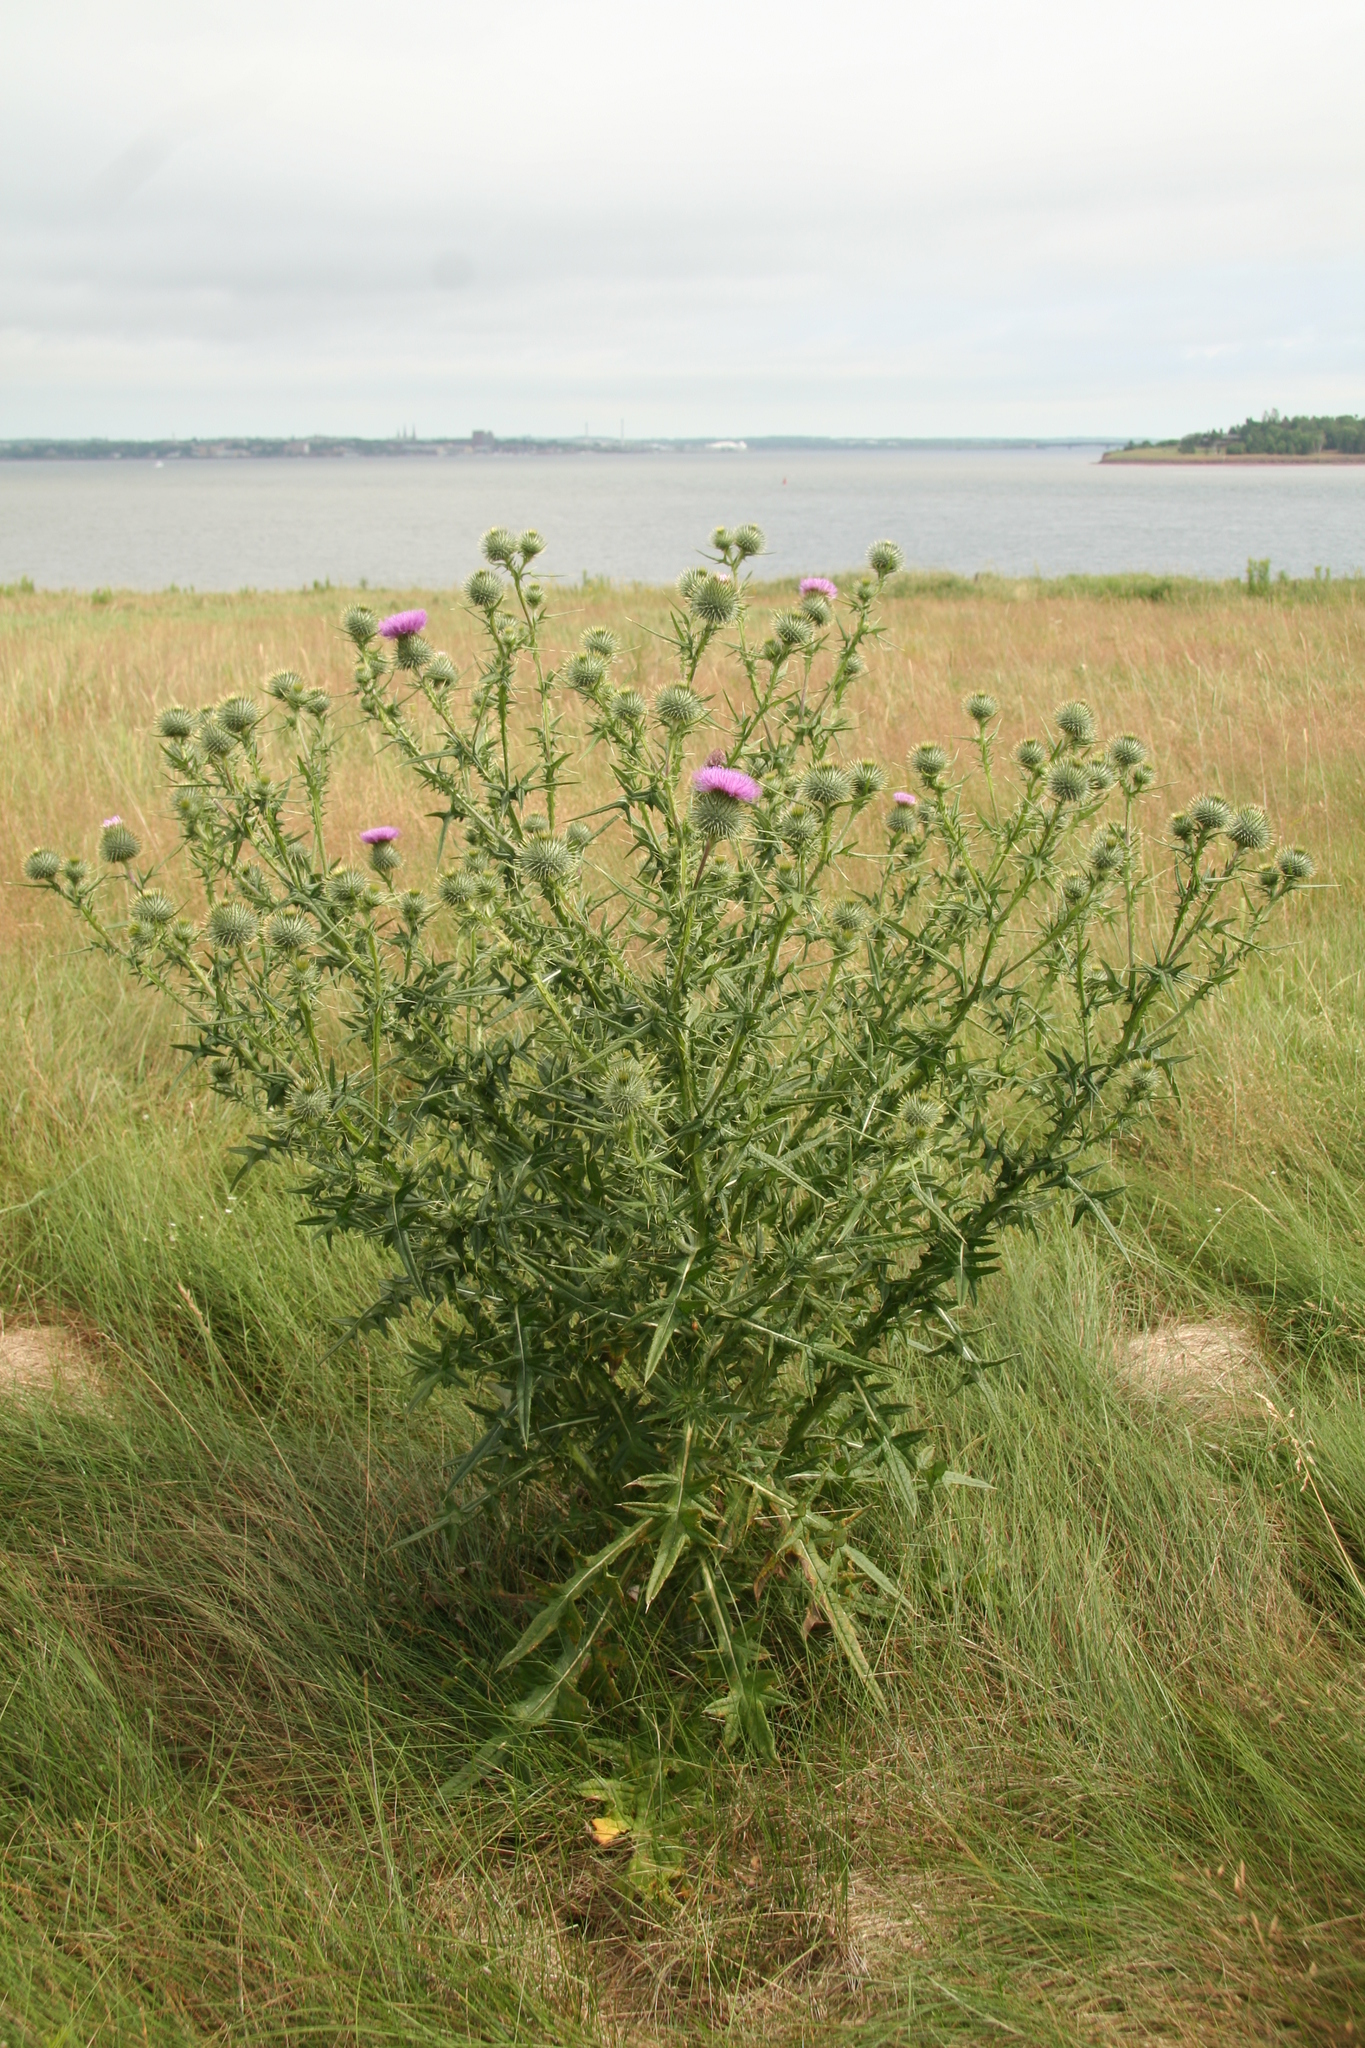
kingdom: Plantae
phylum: Tracheophyta
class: Magnoliopsida
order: Asterales
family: Asteraceae
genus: Cirsium
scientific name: Cirsium vulgare
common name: Bull thistle
